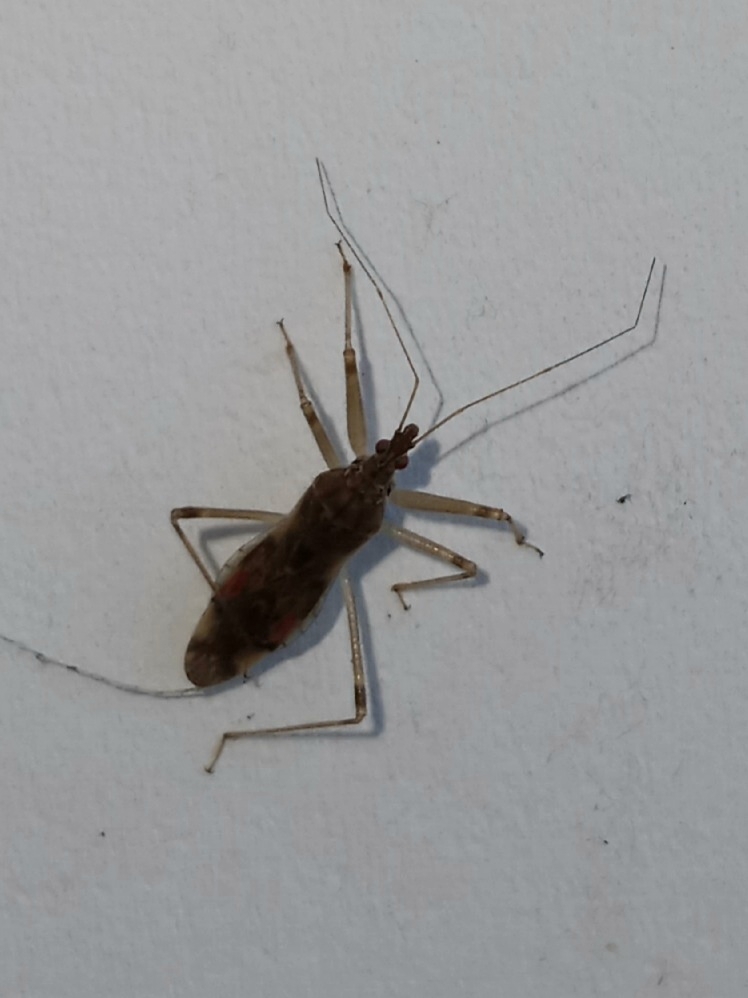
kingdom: Animalia
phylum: Arthropoda
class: Insecta
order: Hemiptera
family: Nabidae
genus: Lasiomerus
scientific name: Lasiomerus annulatus
